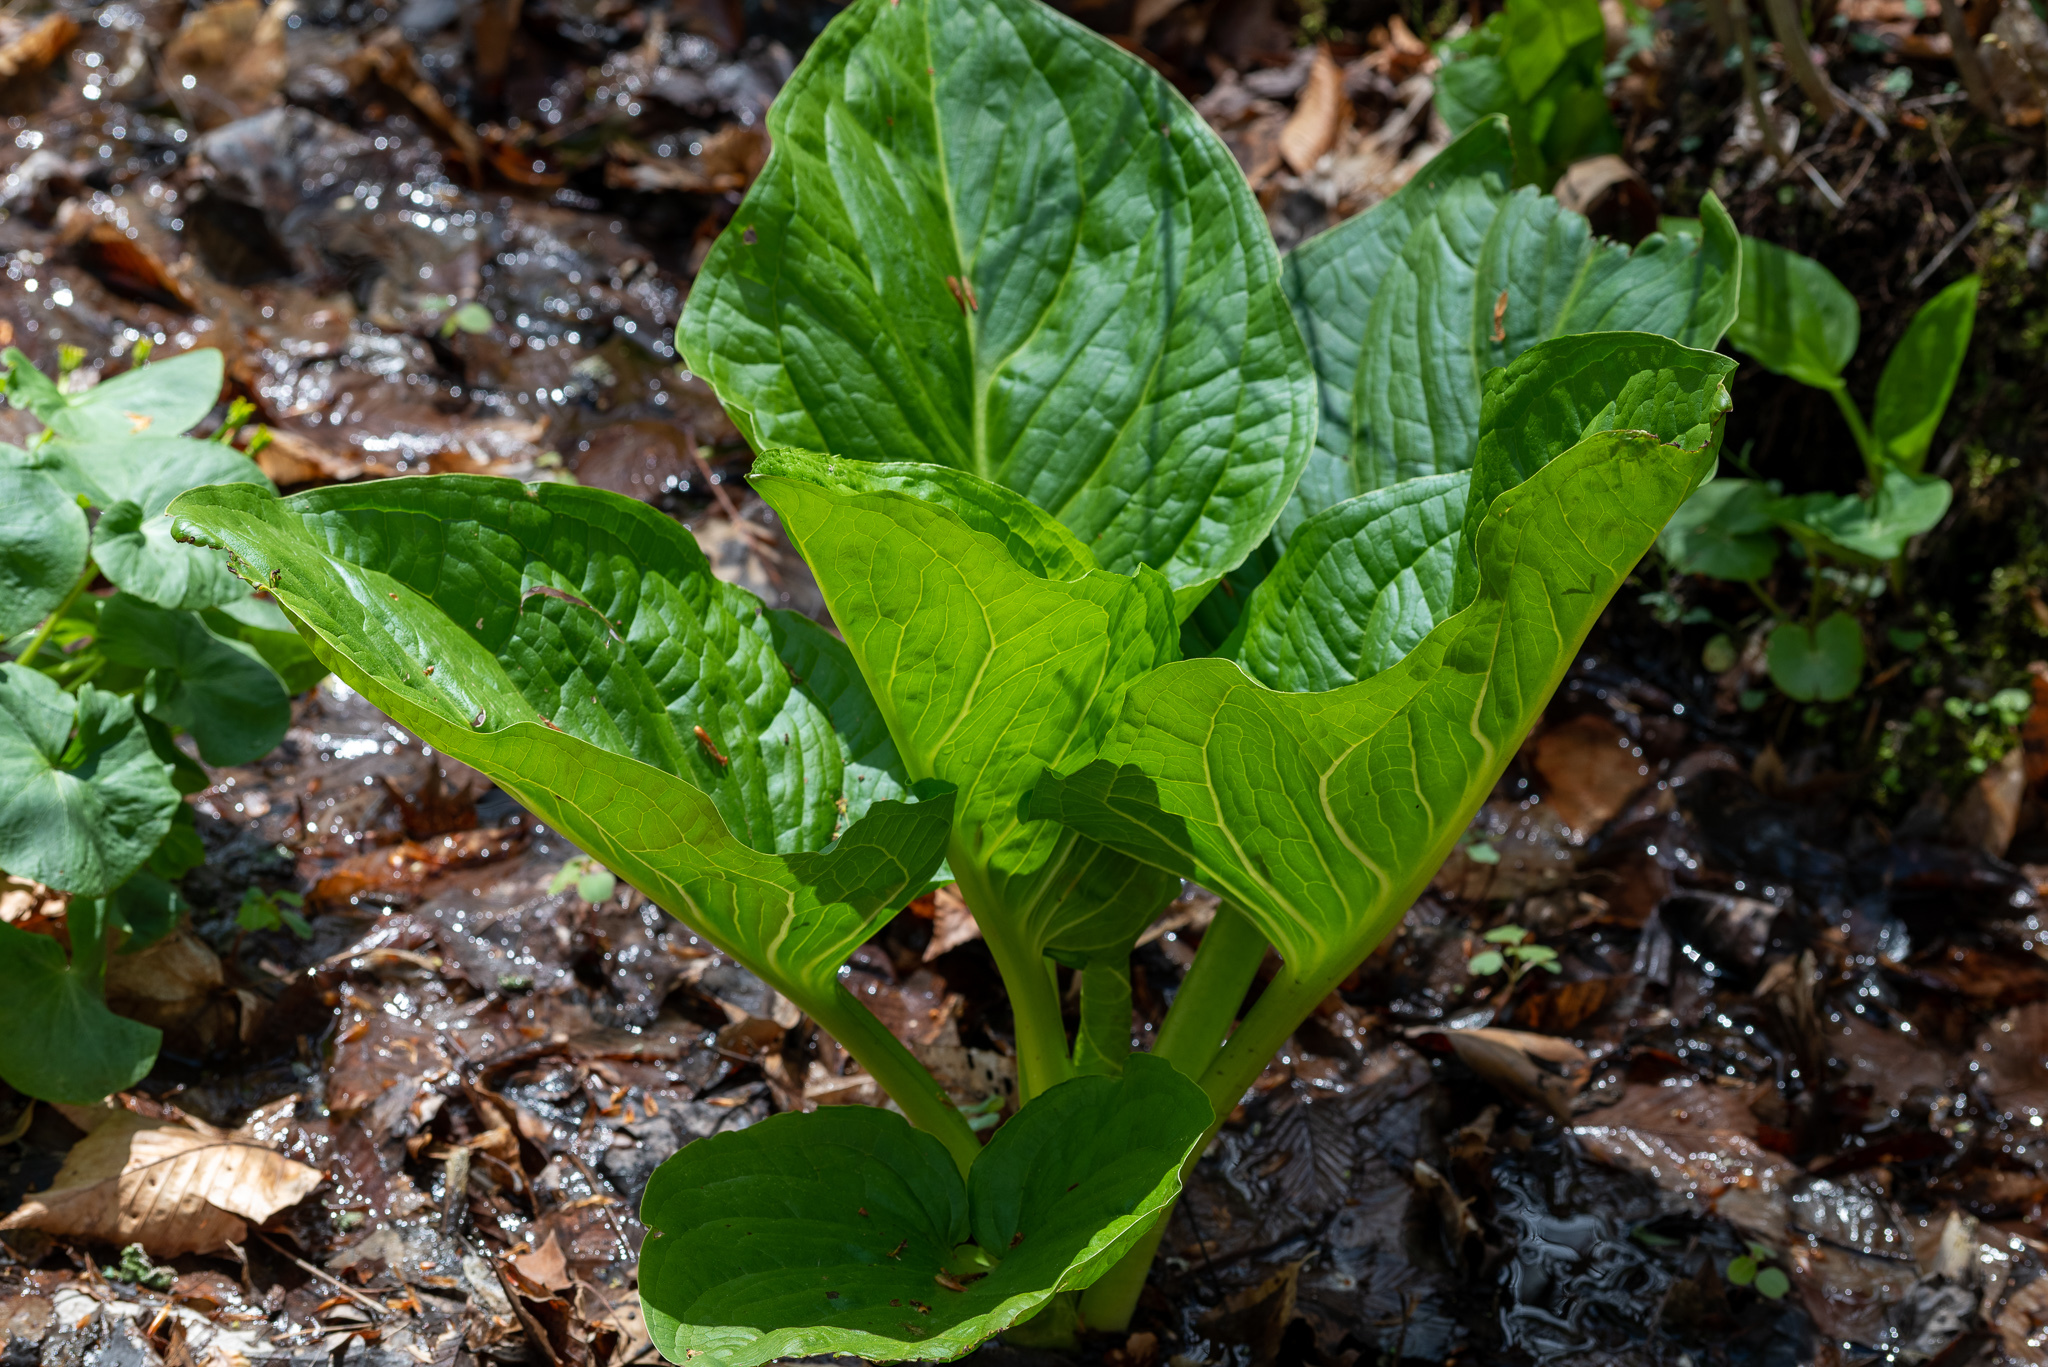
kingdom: Plantae
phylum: Tracheophyta
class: Liliopsida
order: Alismatales
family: Araceae
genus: Symplocarpus
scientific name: Symplocarpus foetidus
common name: Eastern skunk cabbage
